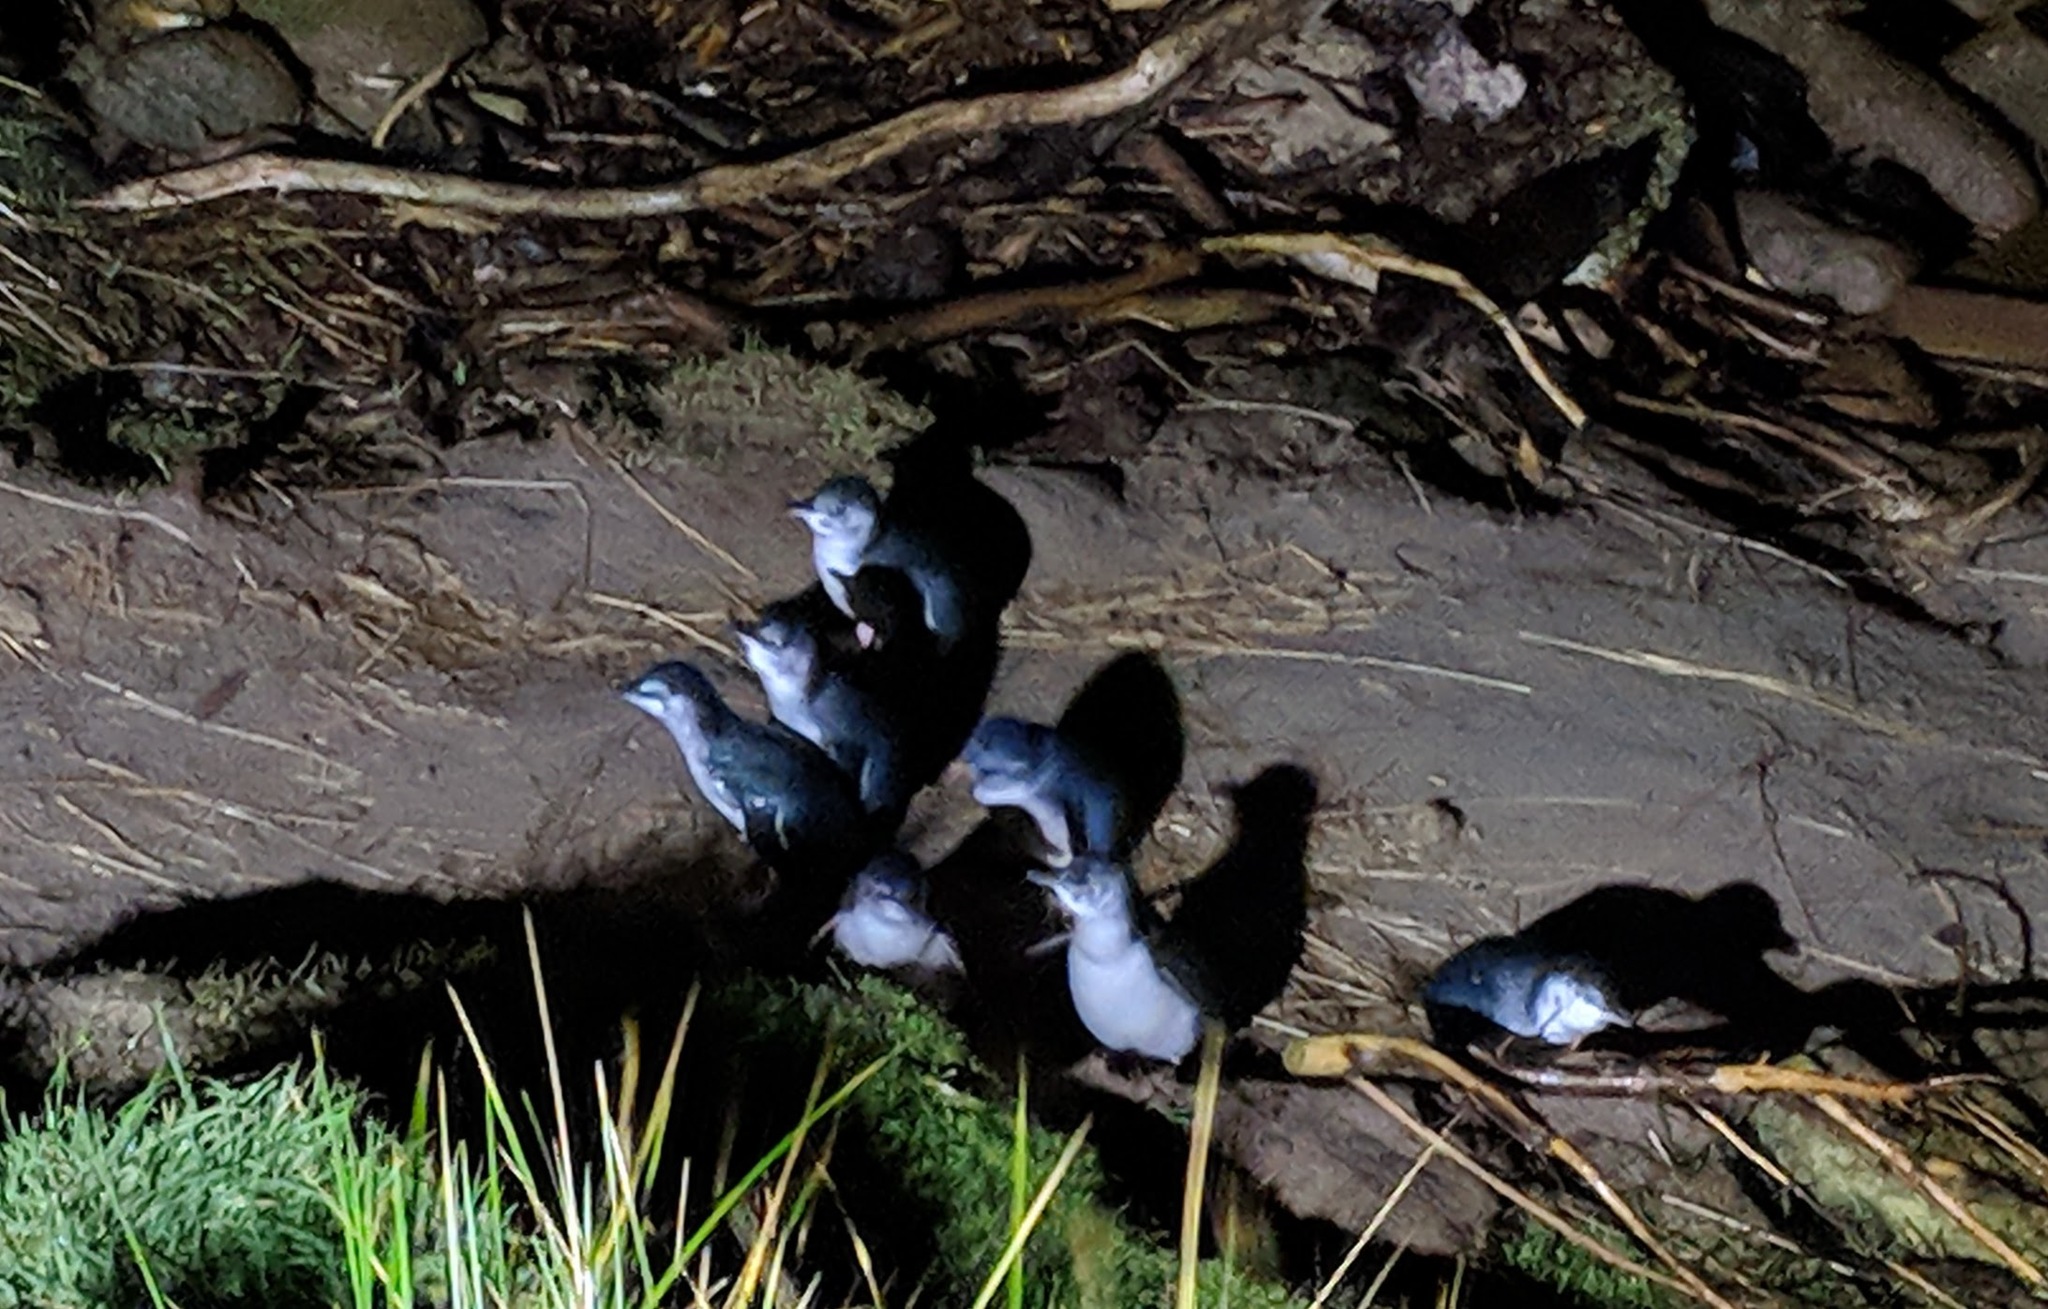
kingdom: Animalia
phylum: Chordata
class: Aves
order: Sphenisciformes
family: Spheniscidae
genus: Eudyptula
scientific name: Eudyptula minor
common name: Little penguin
